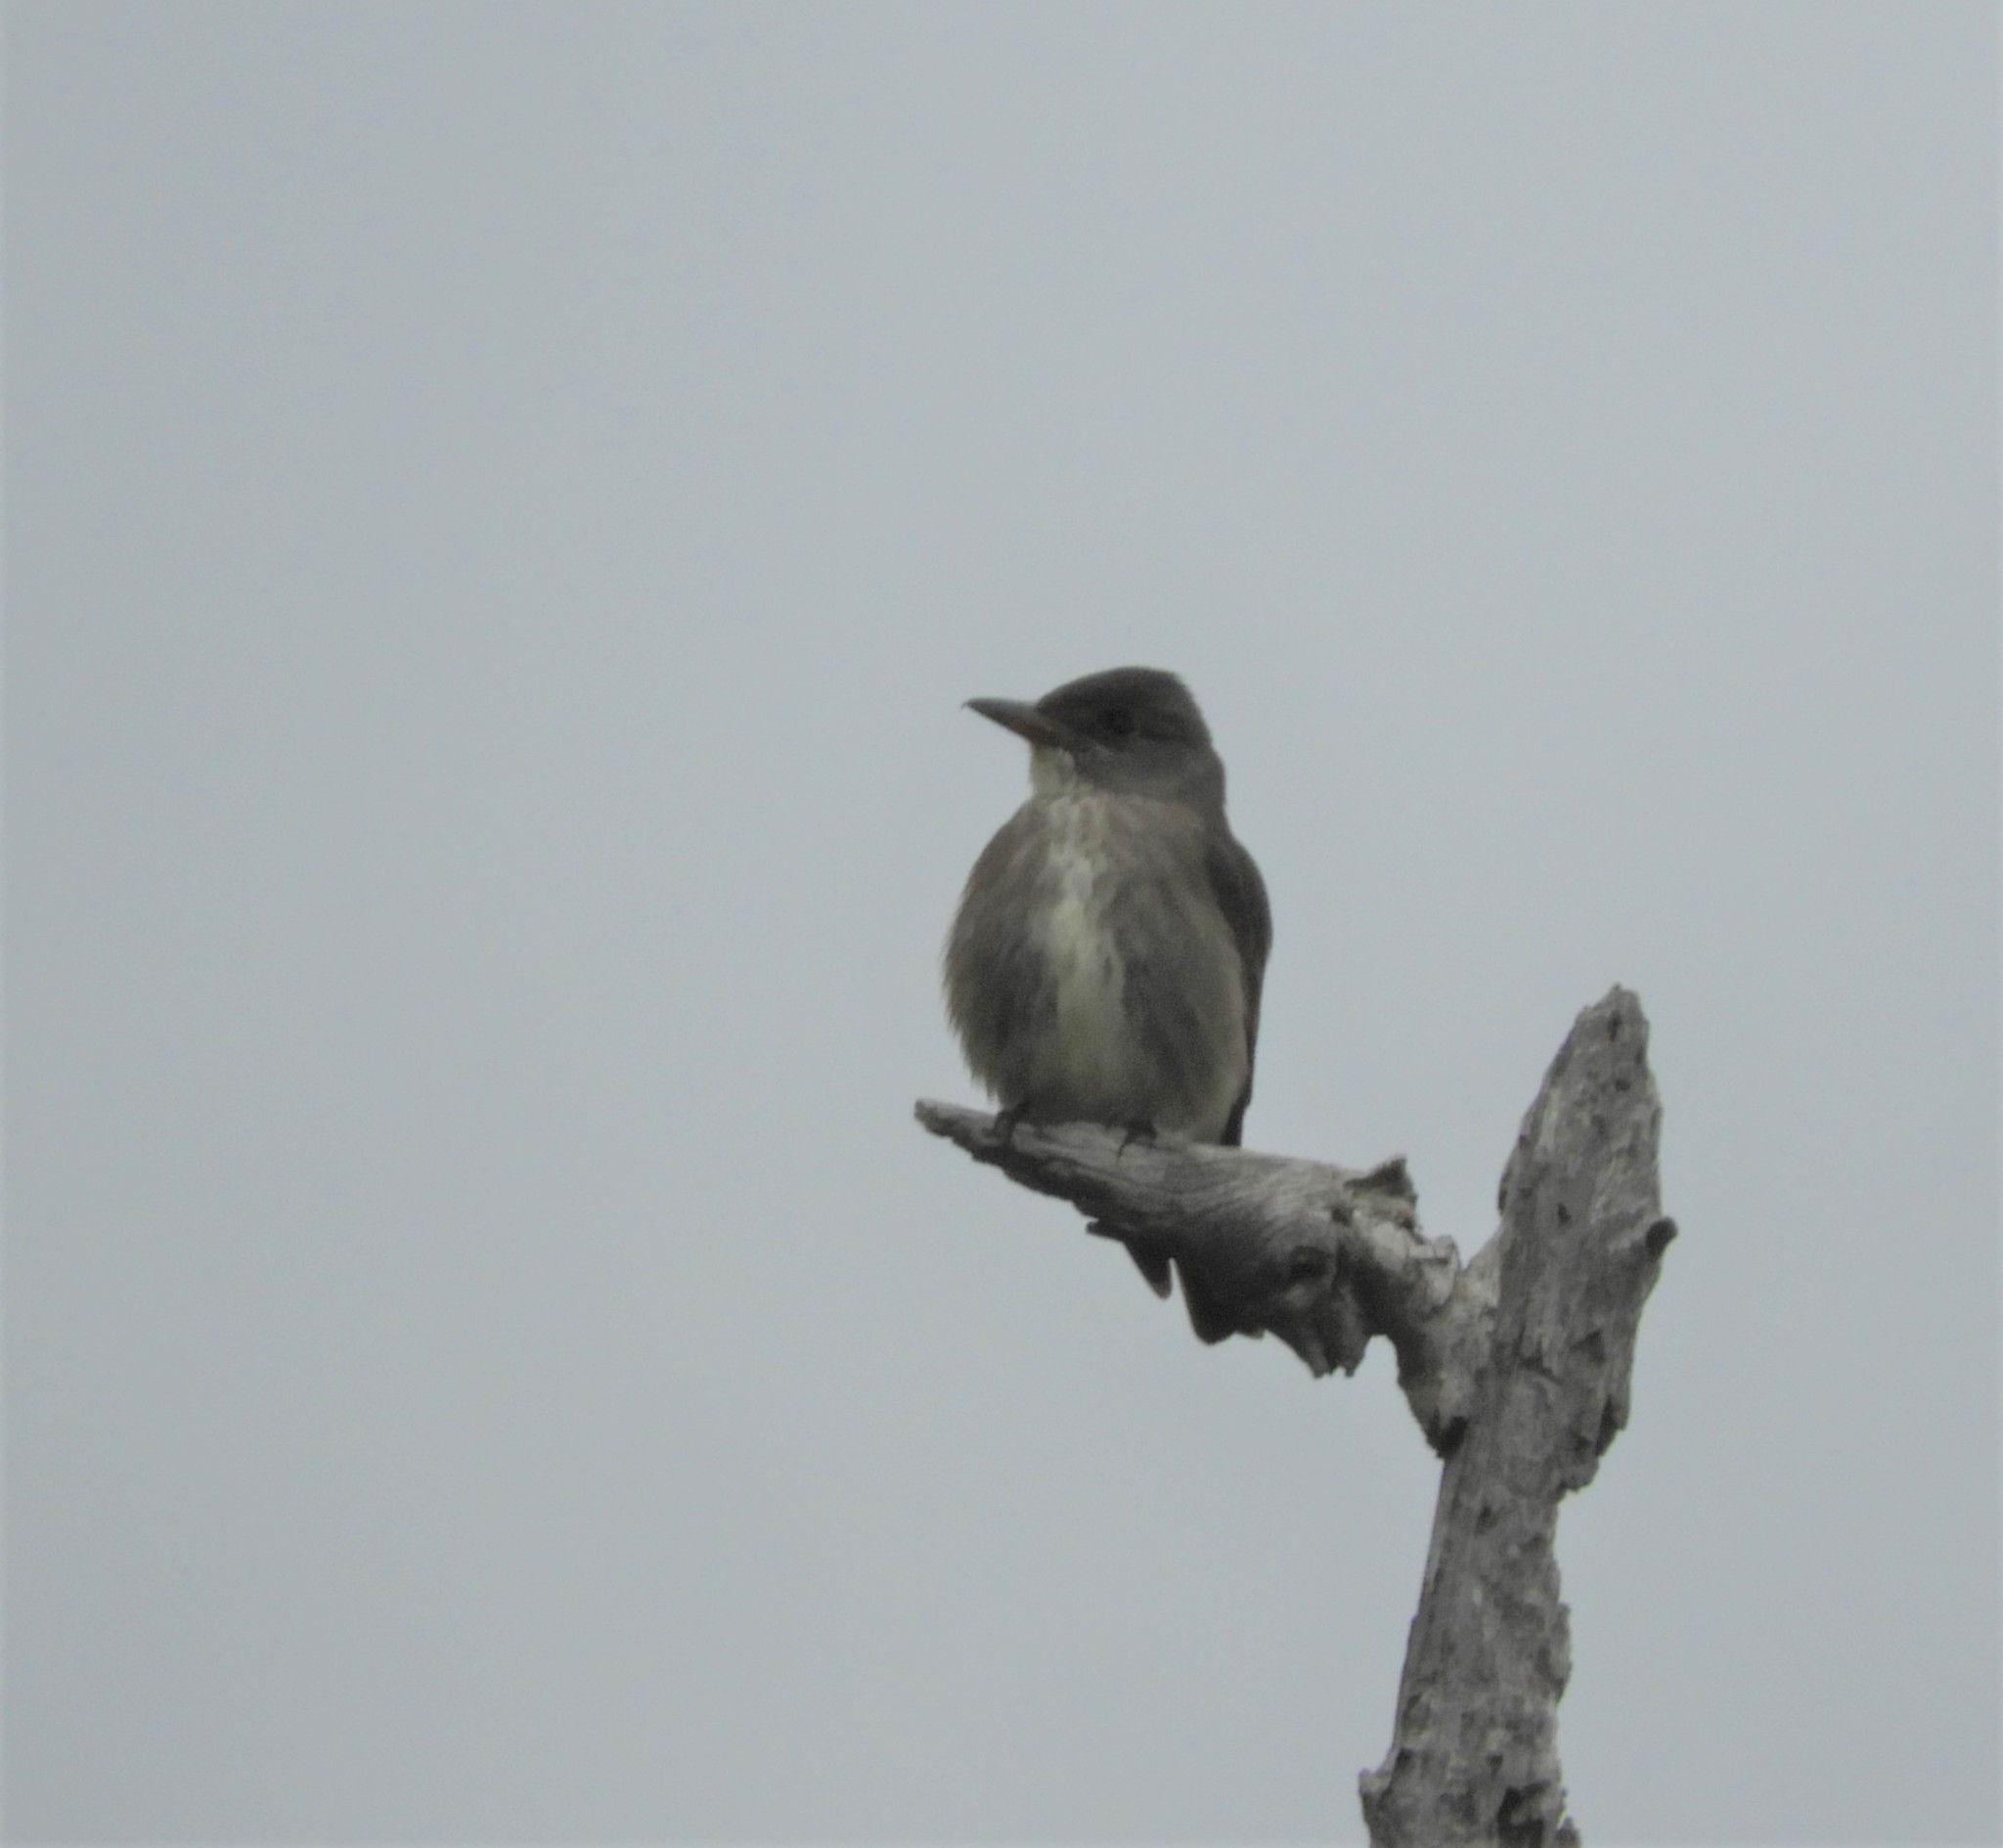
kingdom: Animalia
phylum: Chordata
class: Aves
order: Passeriformes
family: Tyrannidae
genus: Contopus
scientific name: Contopus cooperi
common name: Olive-sided flycatcher
